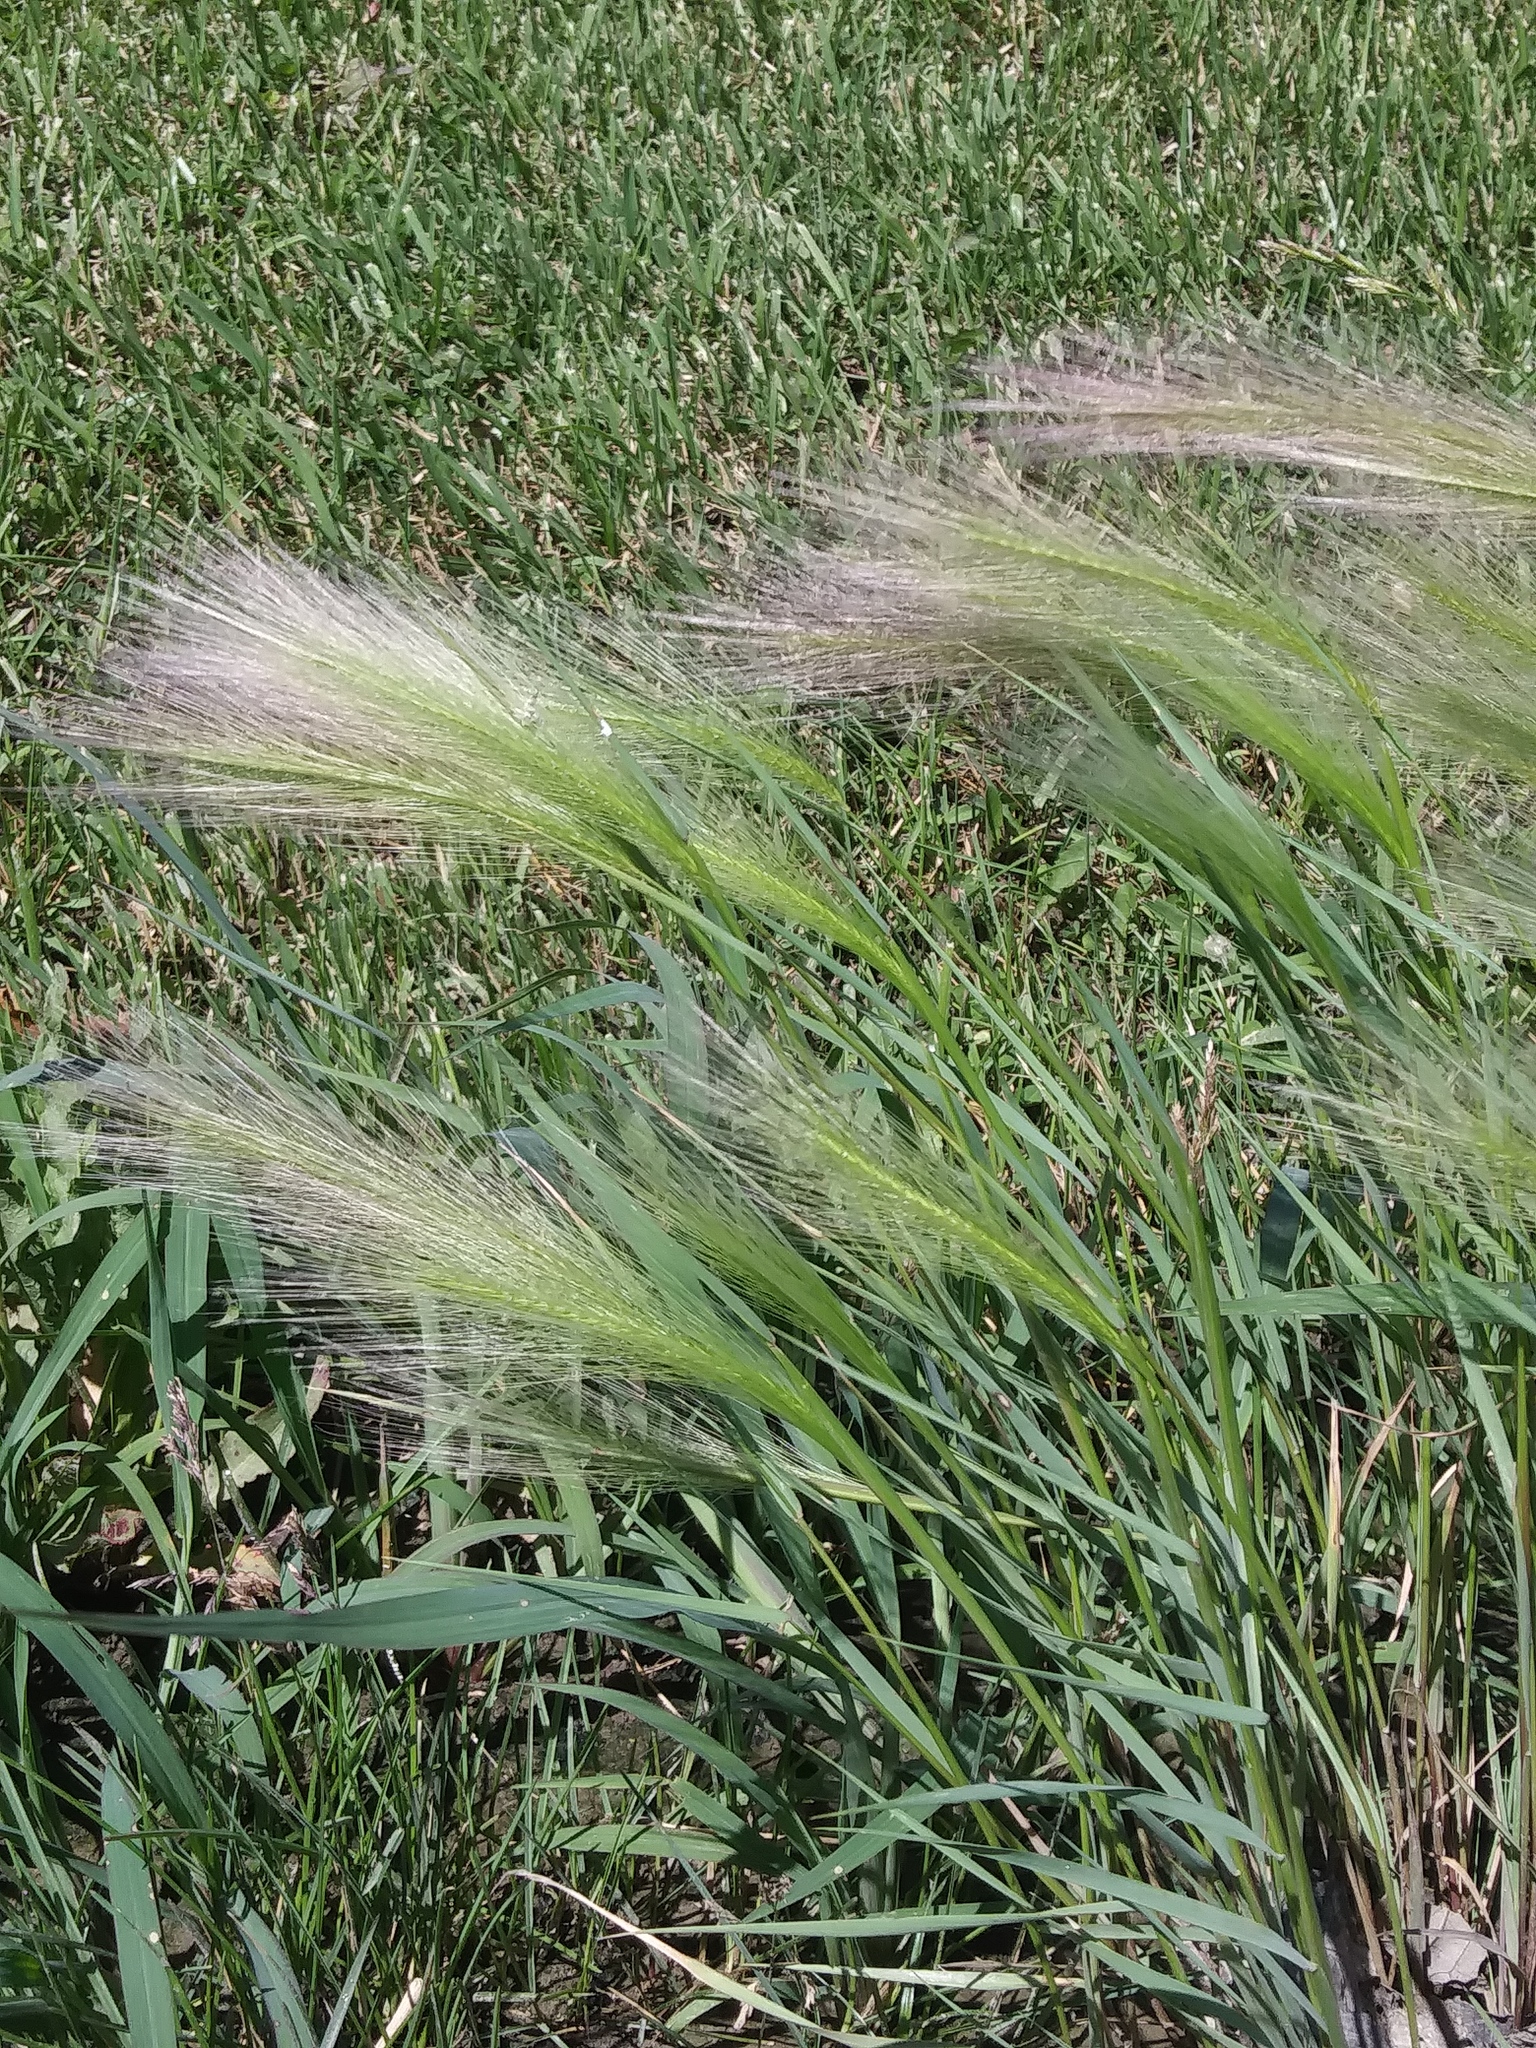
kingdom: Plantae
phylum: Tracheophyta
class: Liliopsida
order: Poales
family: Poaceae
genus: Hordeum
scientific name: Hordeum jubatum
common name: Foxtail barley
